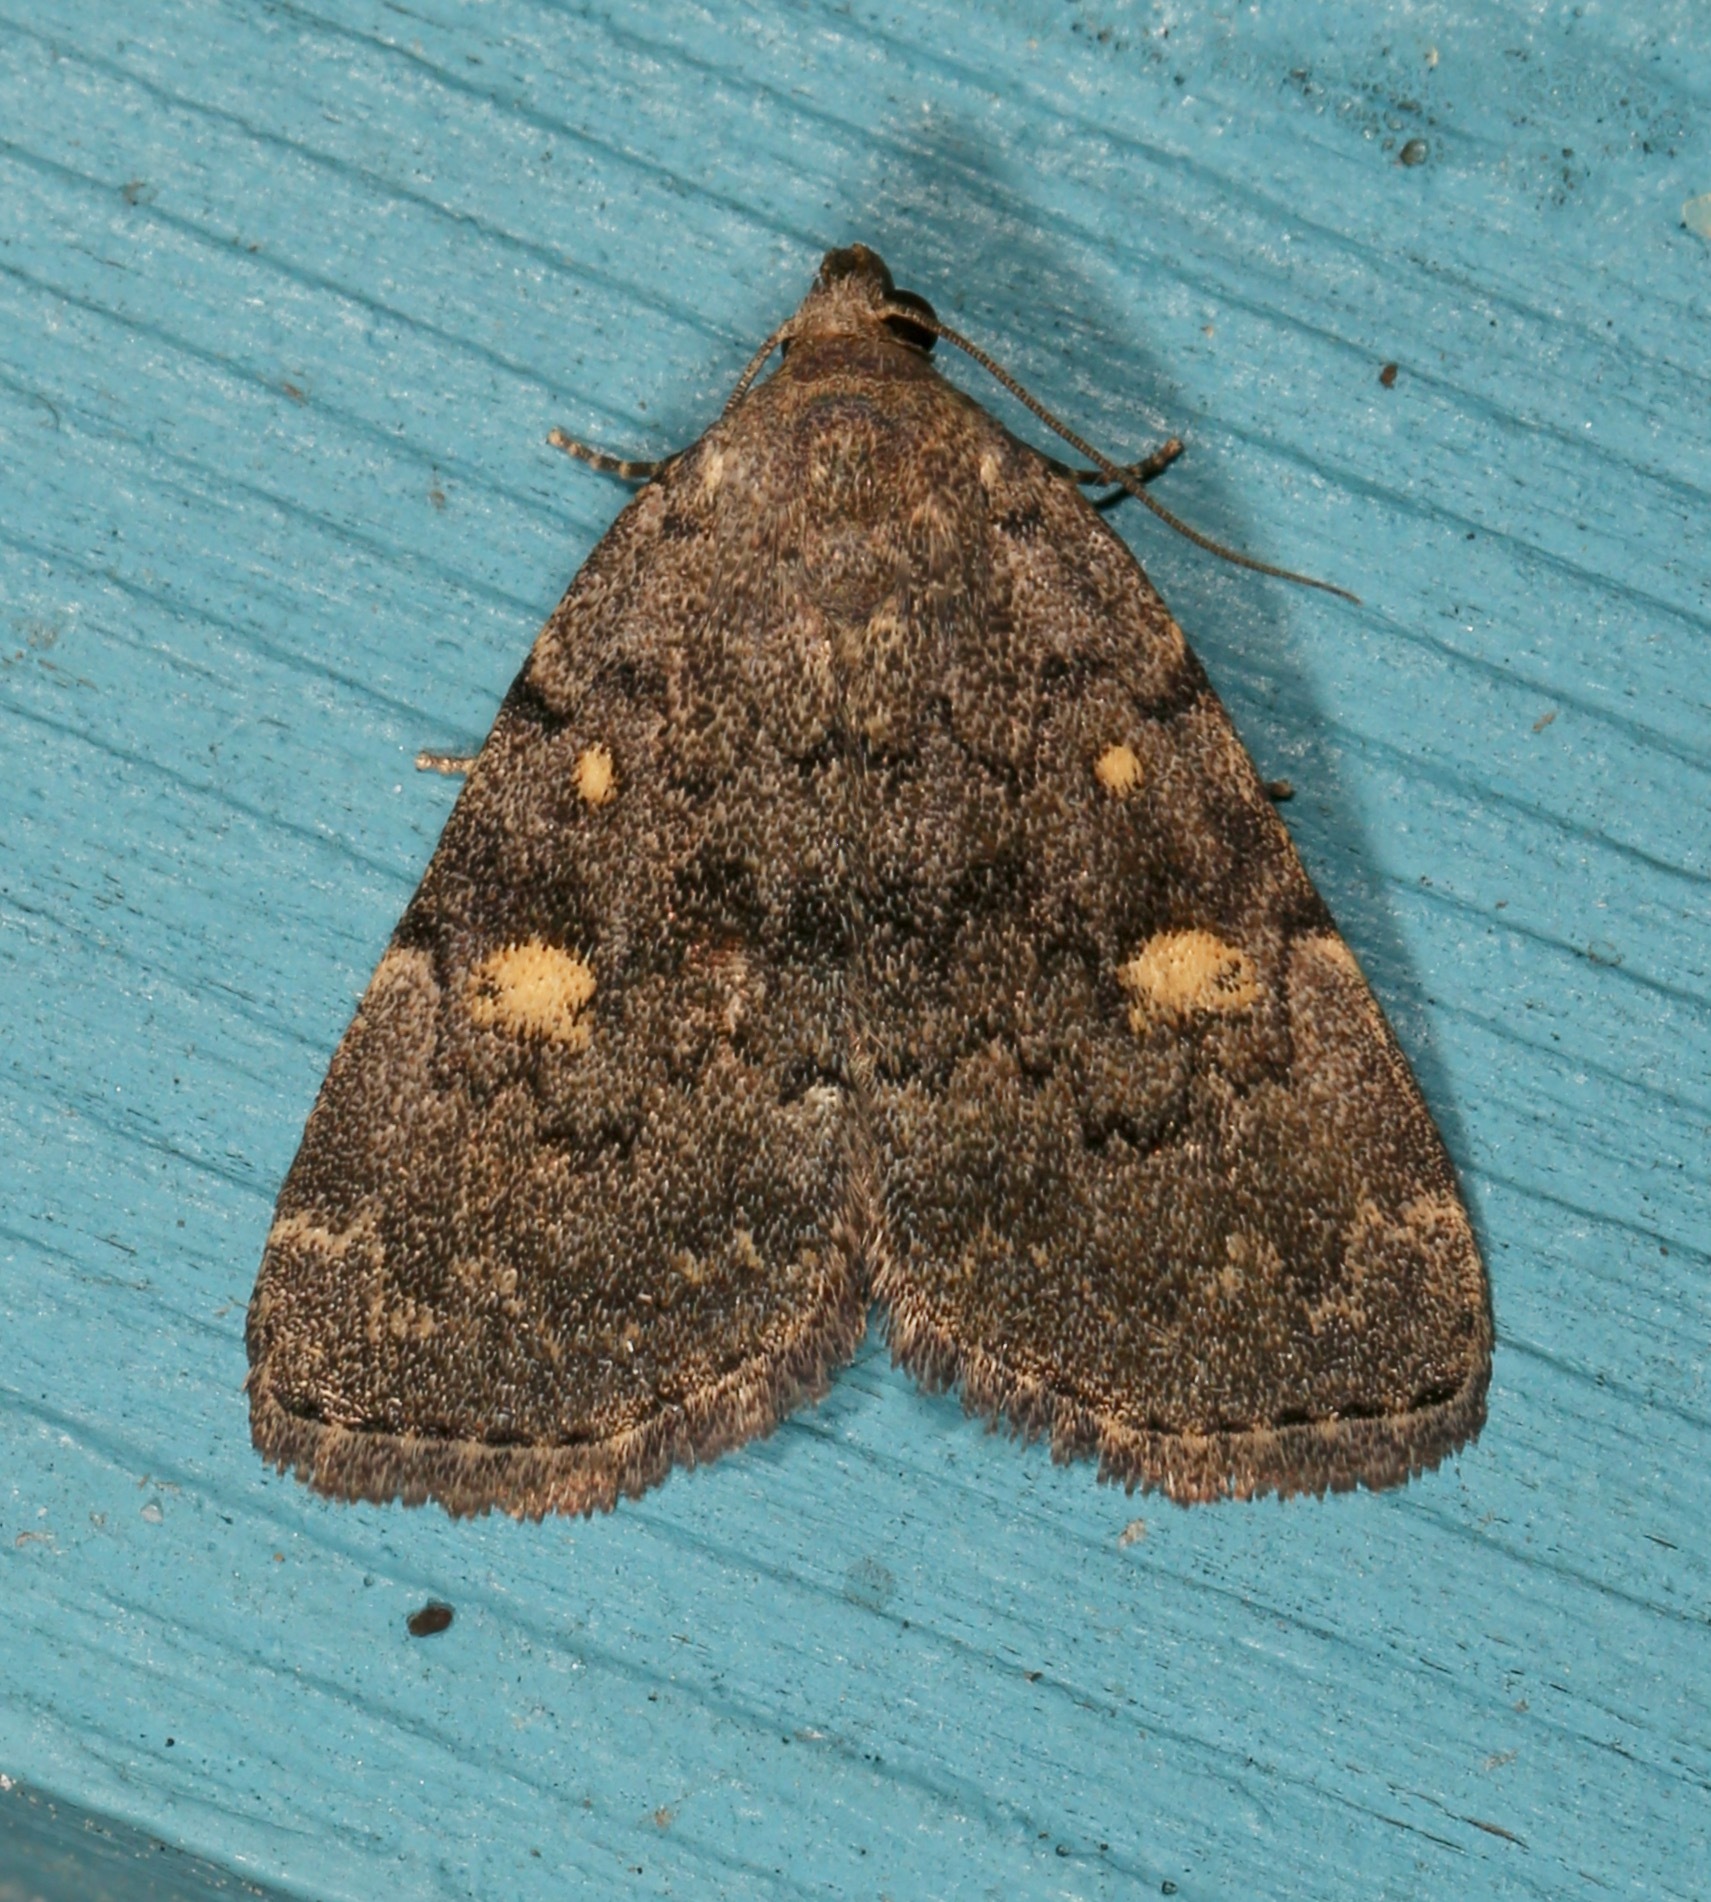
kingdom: Animalia
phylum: Arthropoda
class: Insecta
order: Lepidoptera
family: Erebidae
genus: Idia
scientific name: Idia aemula
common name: Common idia moth
